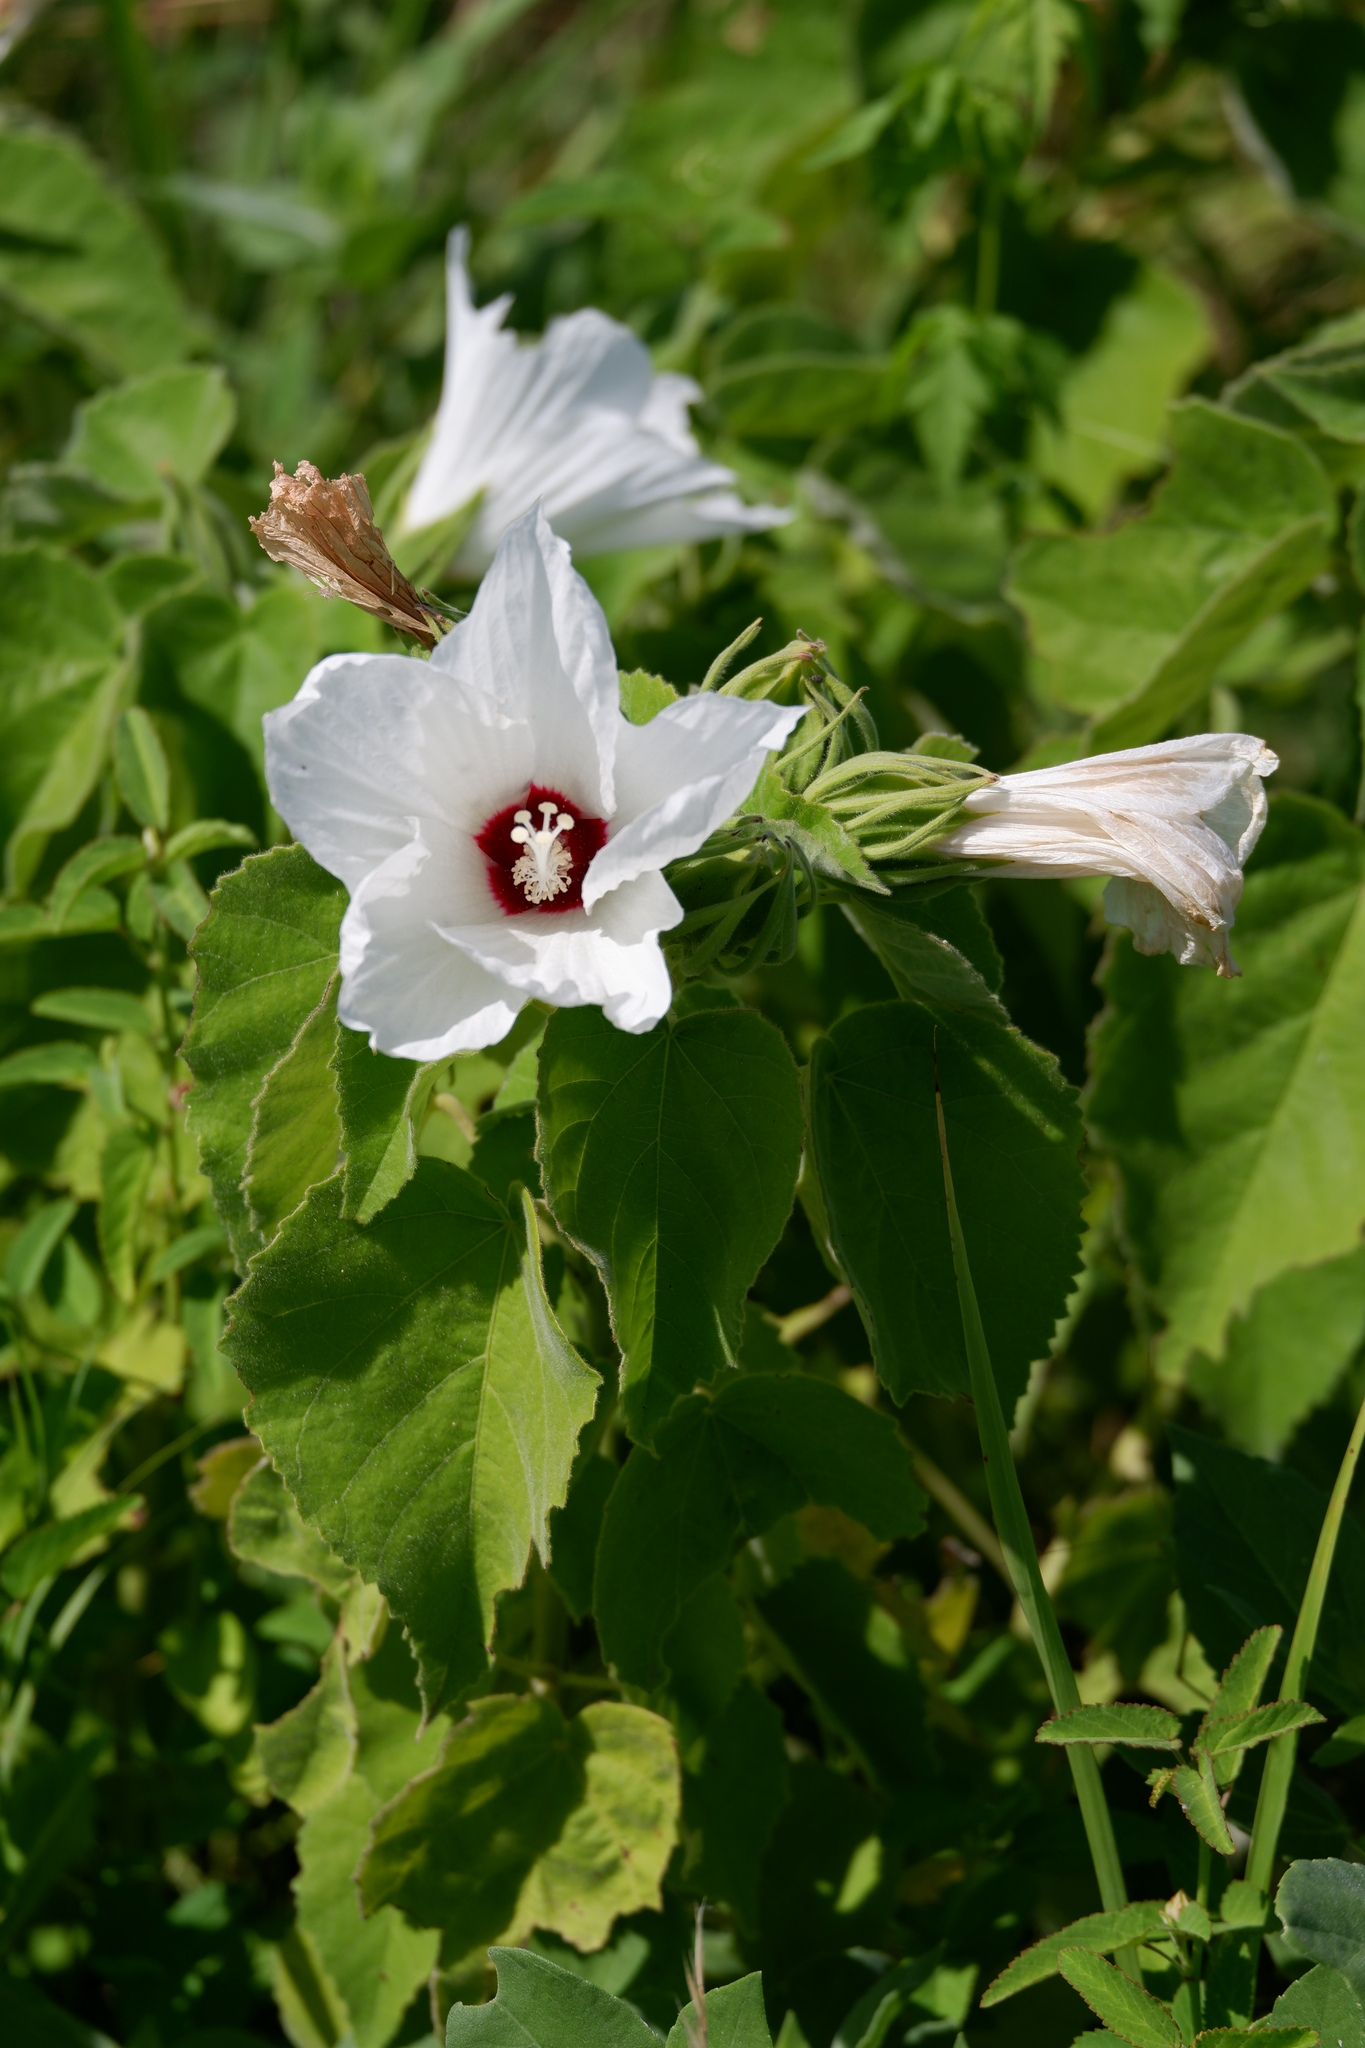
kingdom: Plantae
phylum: Tracheophyta
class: Magnoliopsida
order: Malvales
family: Malvaceae
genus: Hibiscus
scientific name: Hibiscus moscheutos
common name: Common rose-mallow
